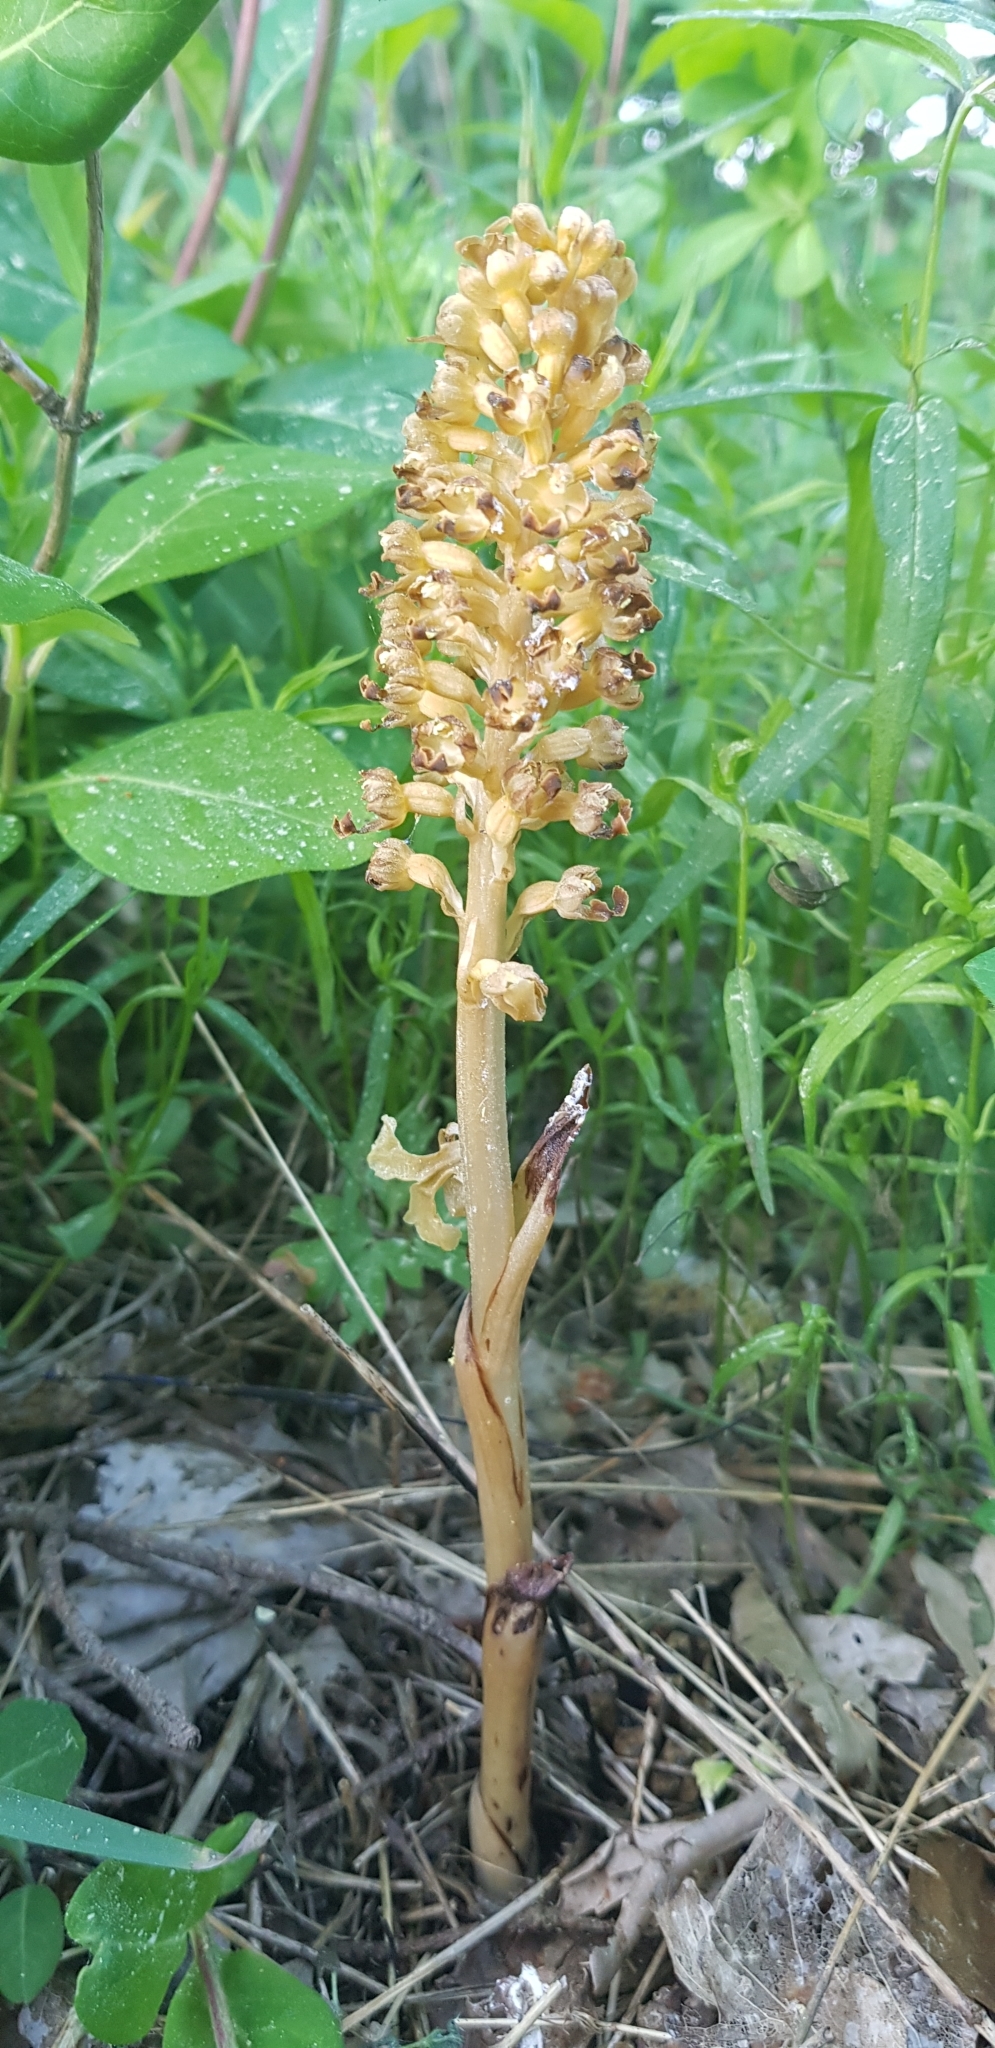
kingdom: Plantae
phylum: Tracheophyta
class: Liliopsida
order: Asparagales
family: Orchidaceae
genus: Neottia
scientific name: Neottia nidus-avis
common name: Bird's-nest orchid
